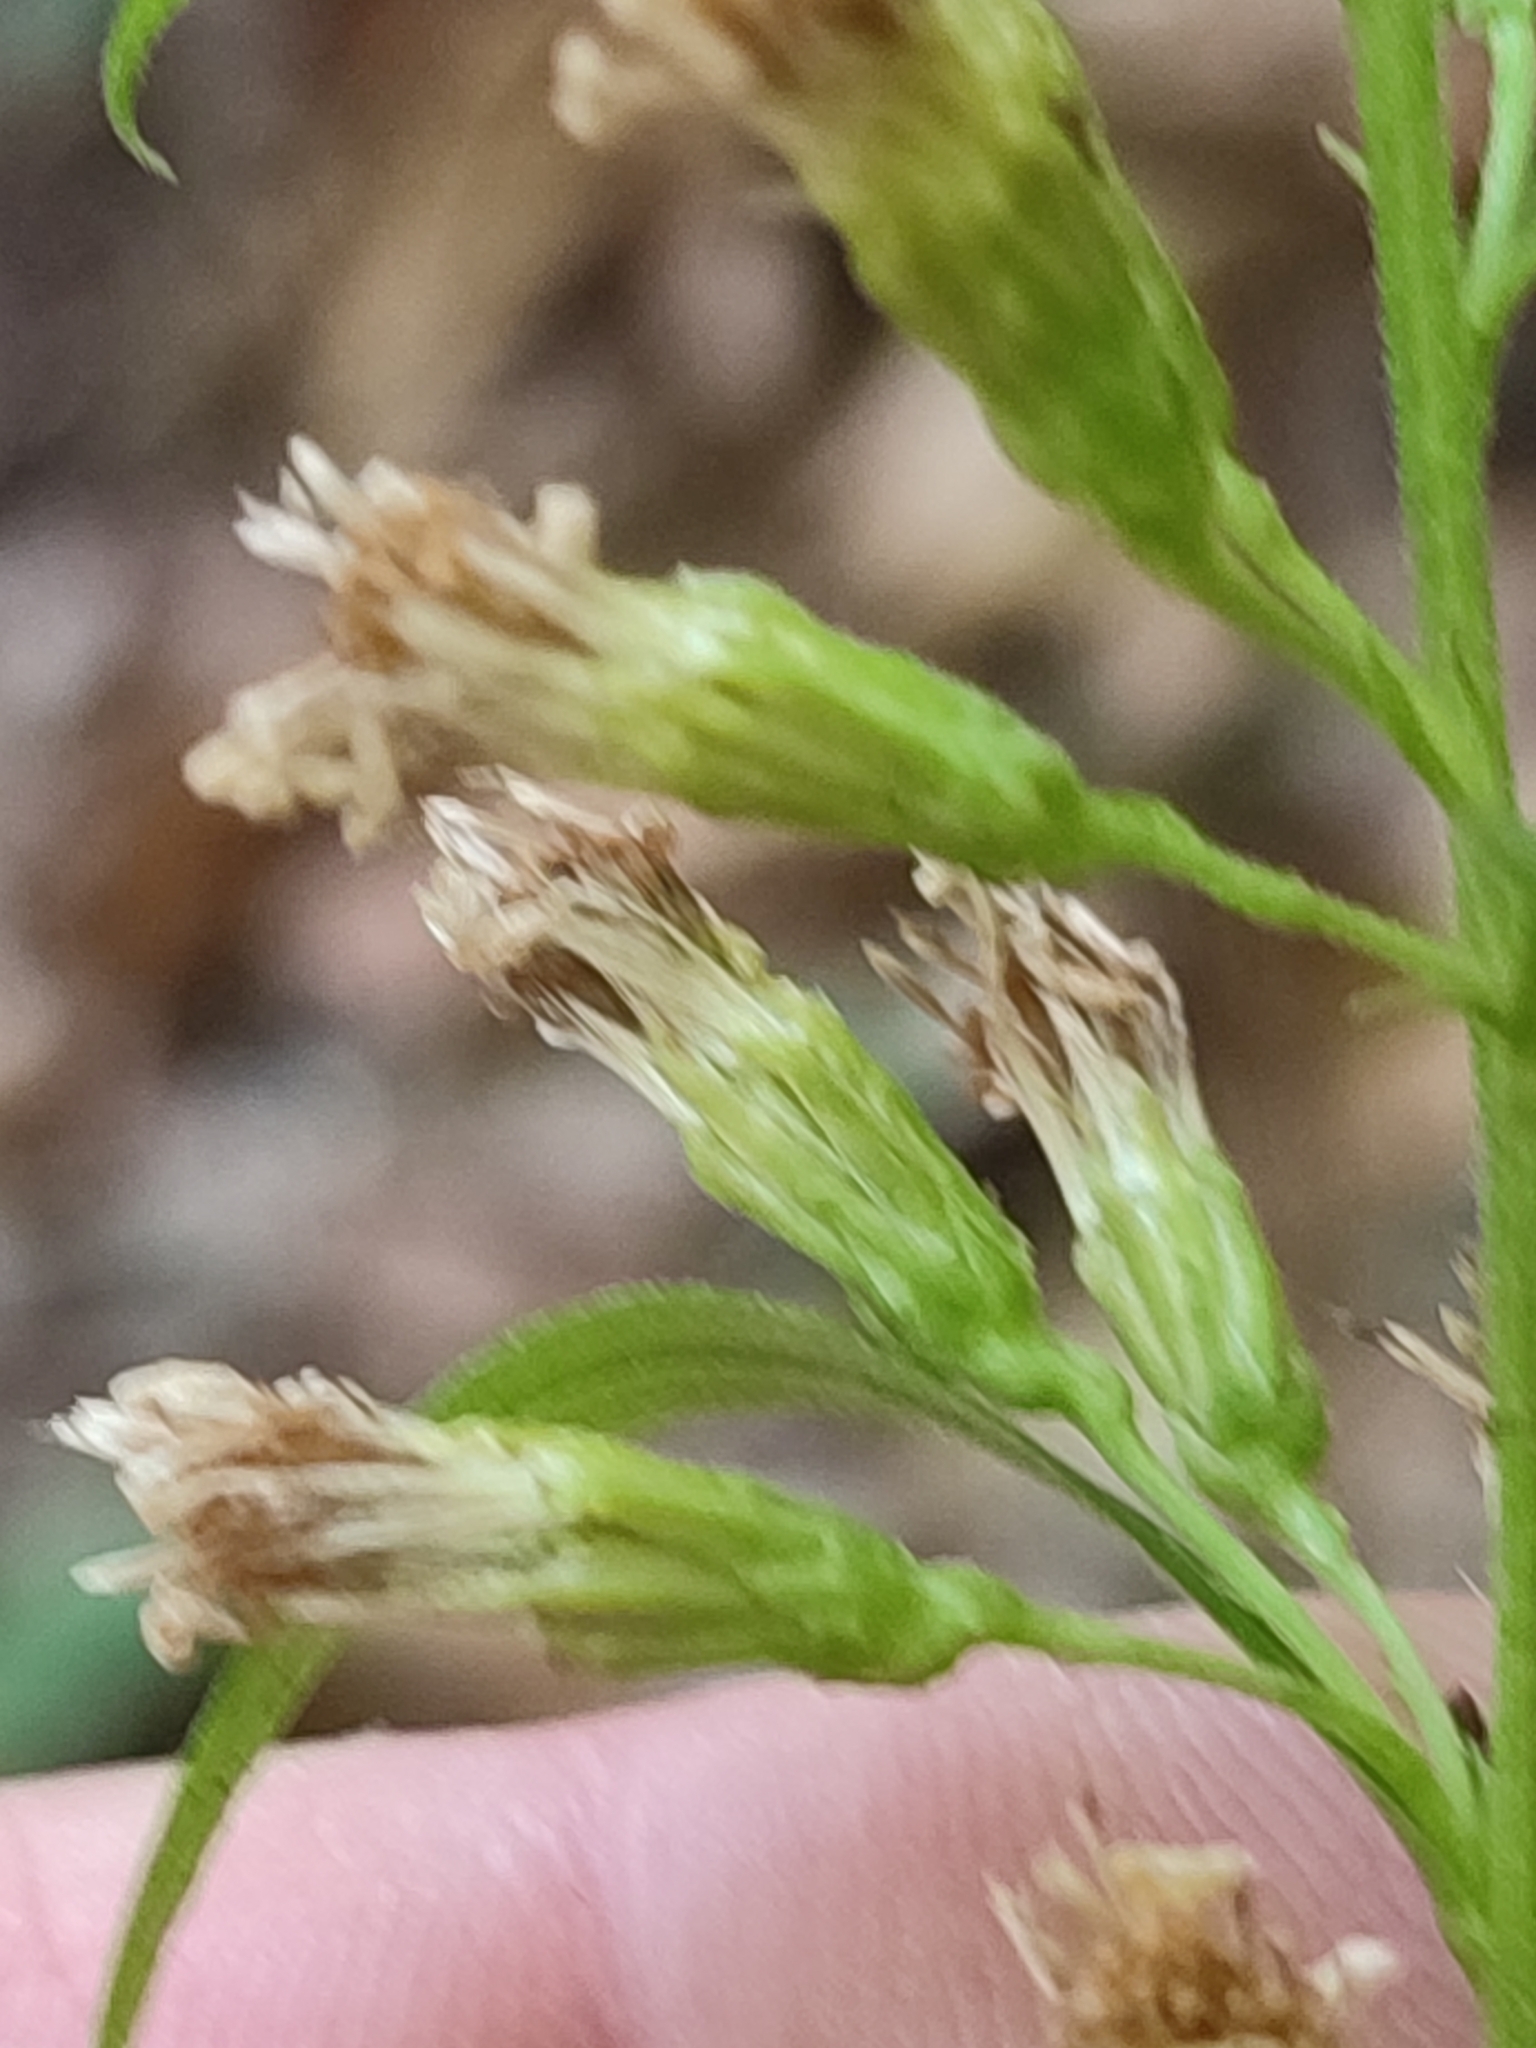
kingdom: Plantae
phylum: Tracheophyta
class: Magnoliopsida
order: Asterales
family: Asteraceae
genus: Solidago
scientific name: Solidago virgaurea
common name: Goldenrod
